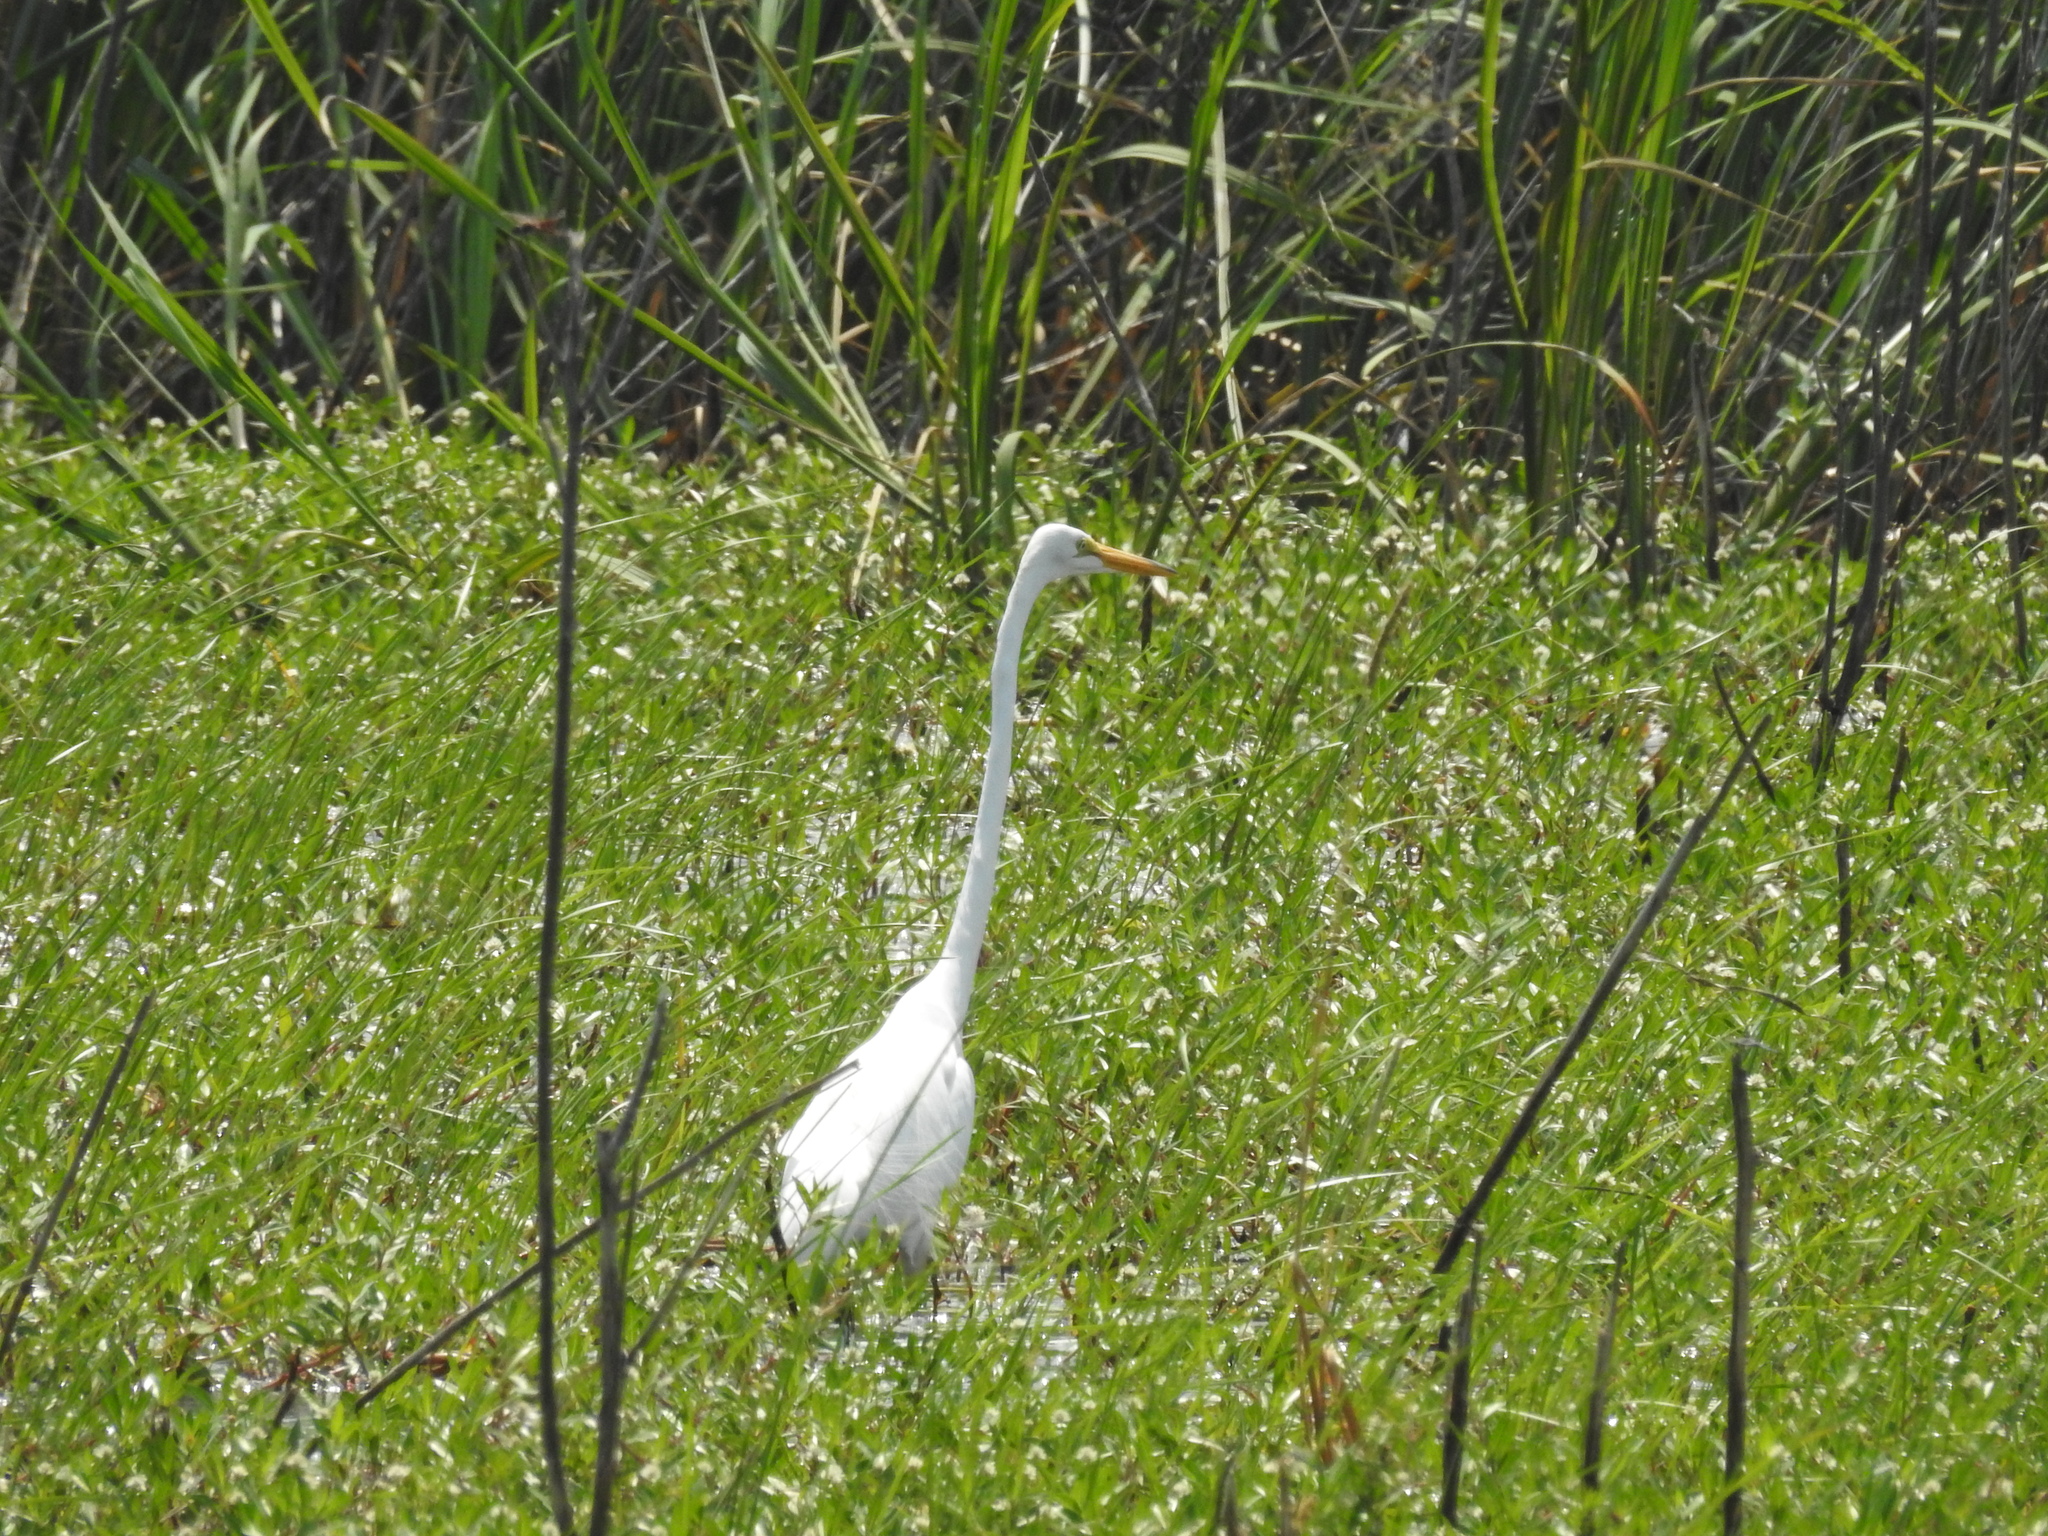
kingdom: Animalia
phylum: Chordata
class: Aves
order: Pelecaniformes
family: Ardeidae
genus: Ardea
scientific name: Ardea alba
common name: Great egret
